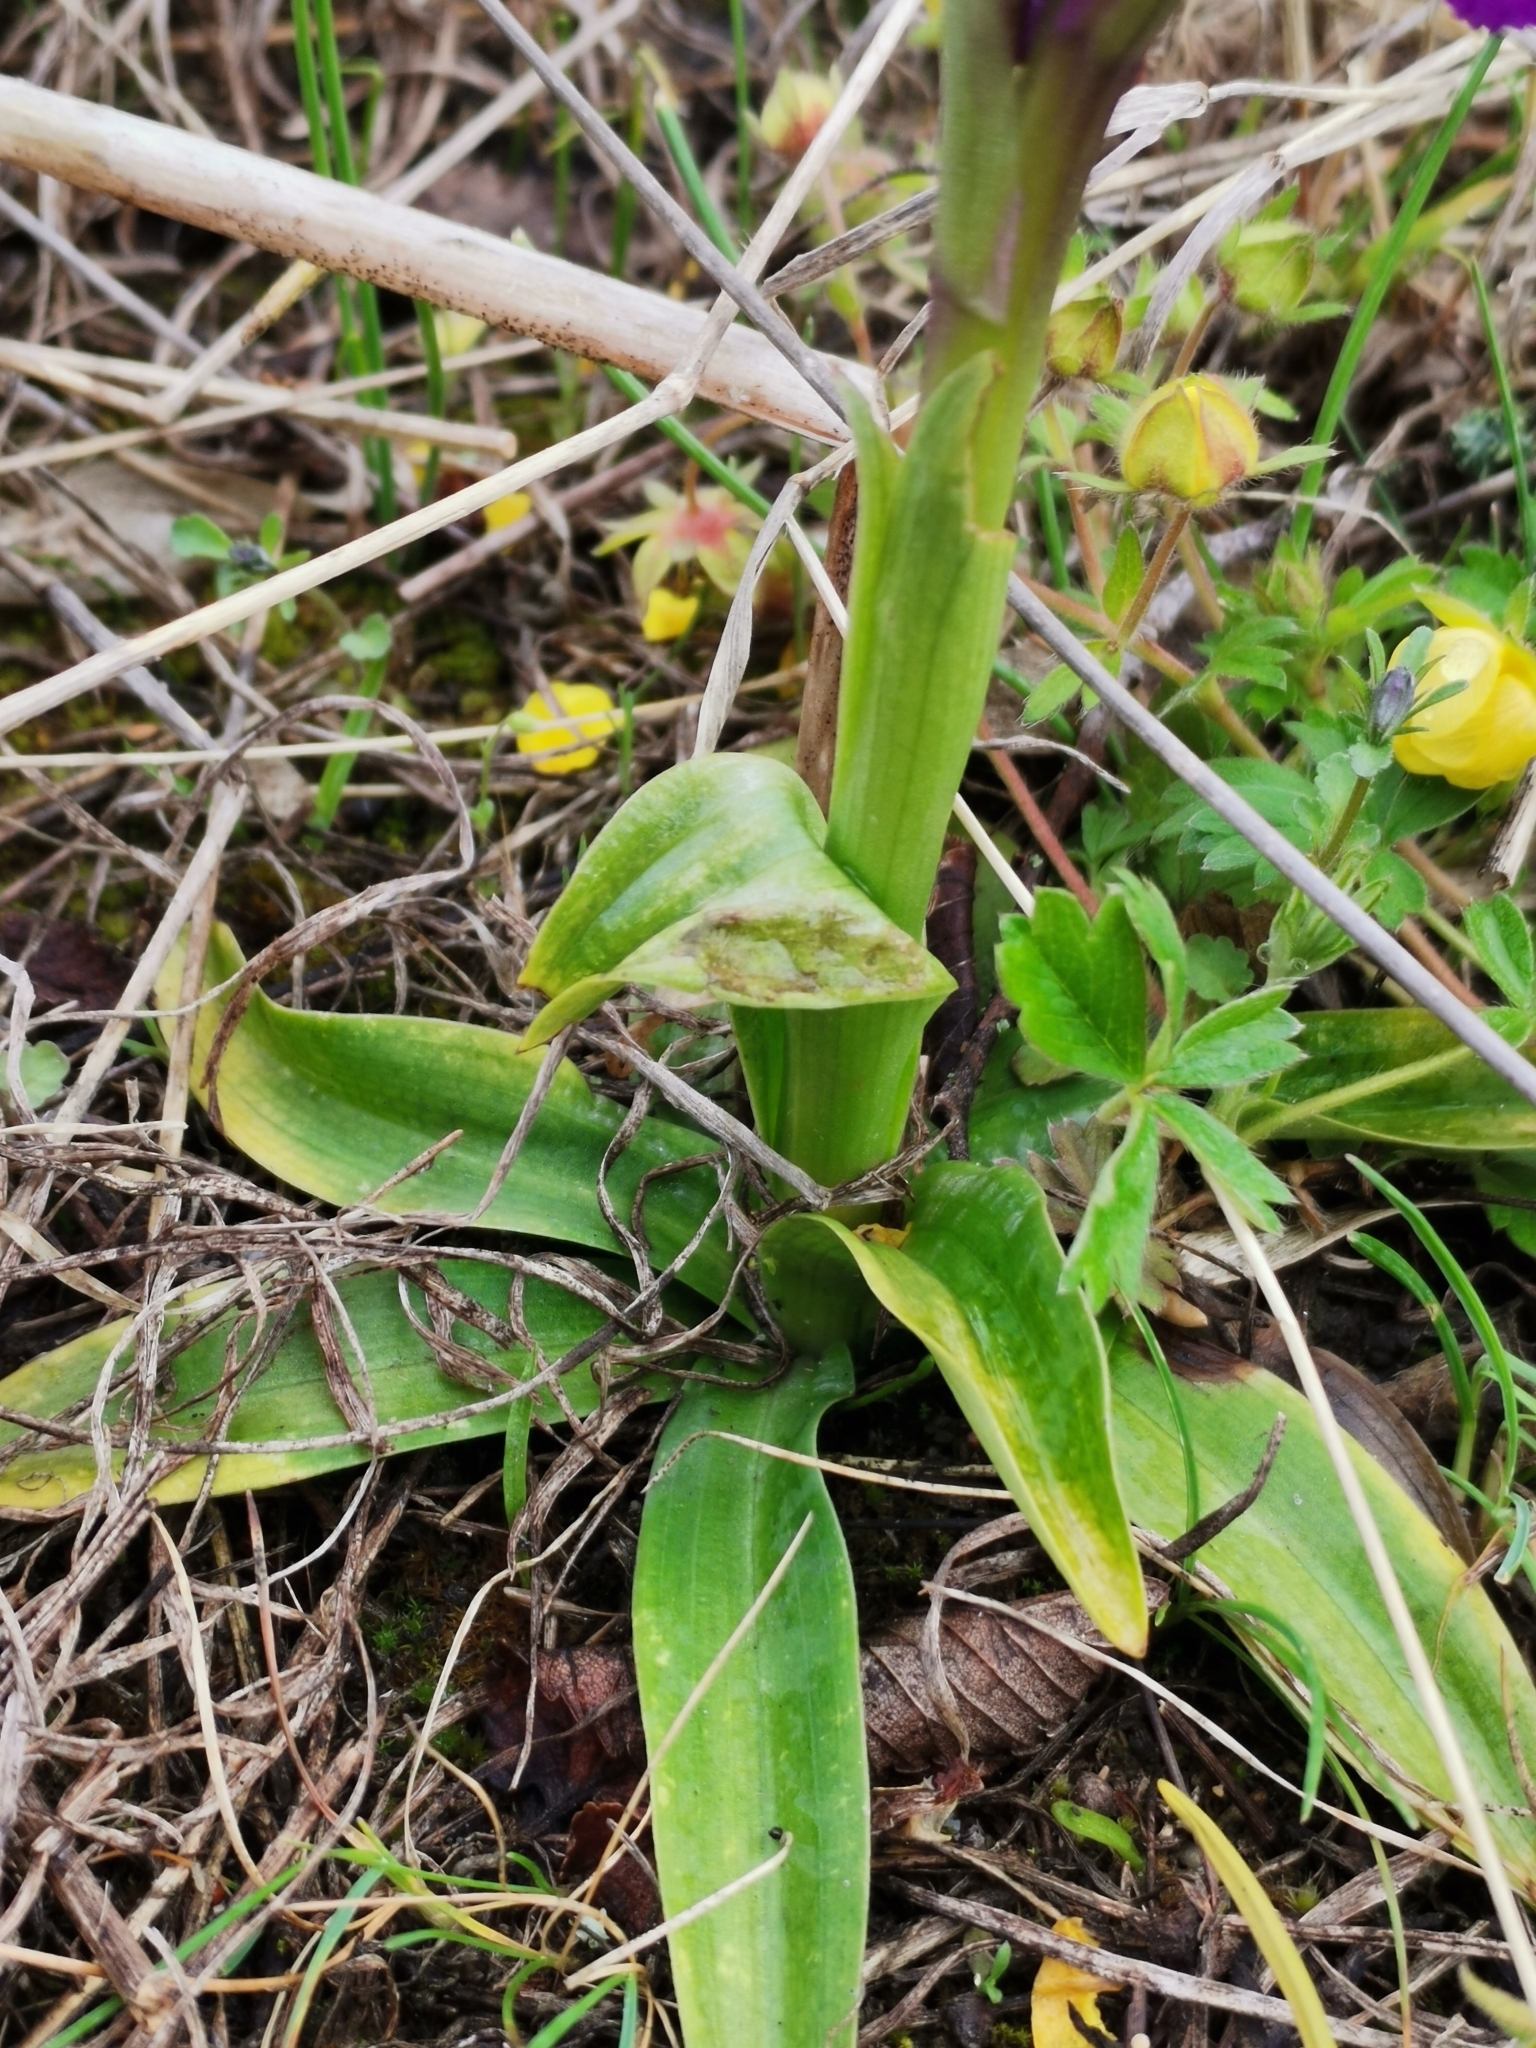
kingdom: Plantae
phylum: Tracheophyta
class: Liliopsida
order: Asparagales
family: Orchidaceae
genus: Anacamptis
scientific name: Anacamptis morio
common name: Green-winged orchid
